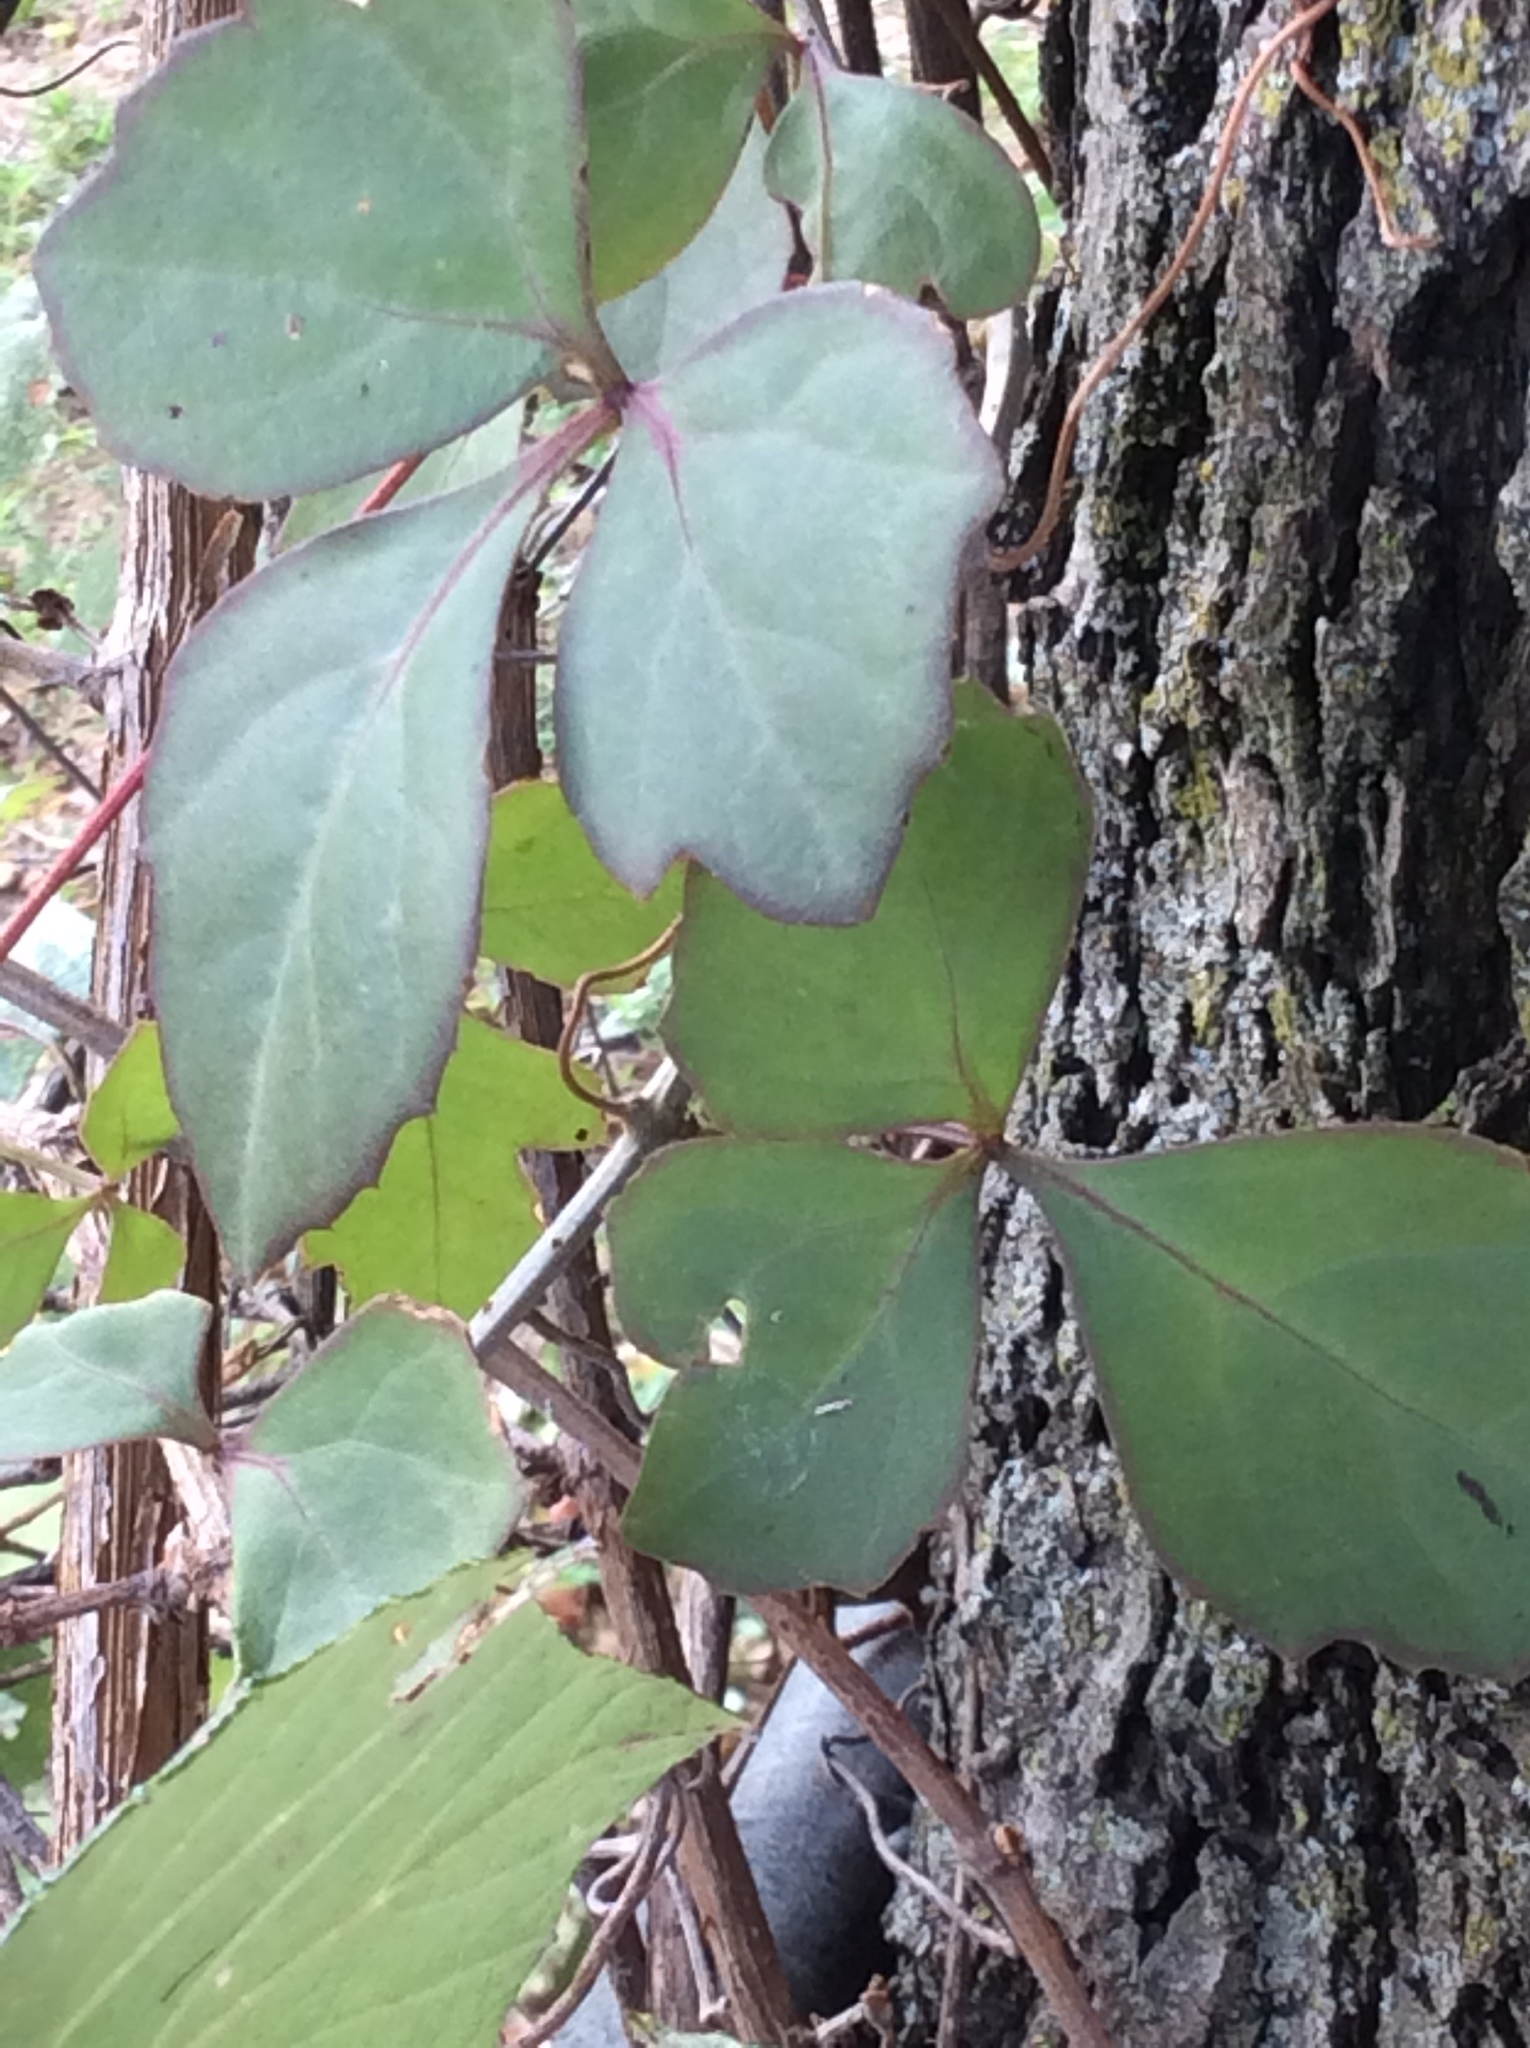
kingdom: Plantae
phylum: Tracheophyta
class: Magnoliopsida
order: Vitales
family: Vitaceae
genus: Cissus
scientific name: Cissus trifoliata
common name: Vine-sorrel
